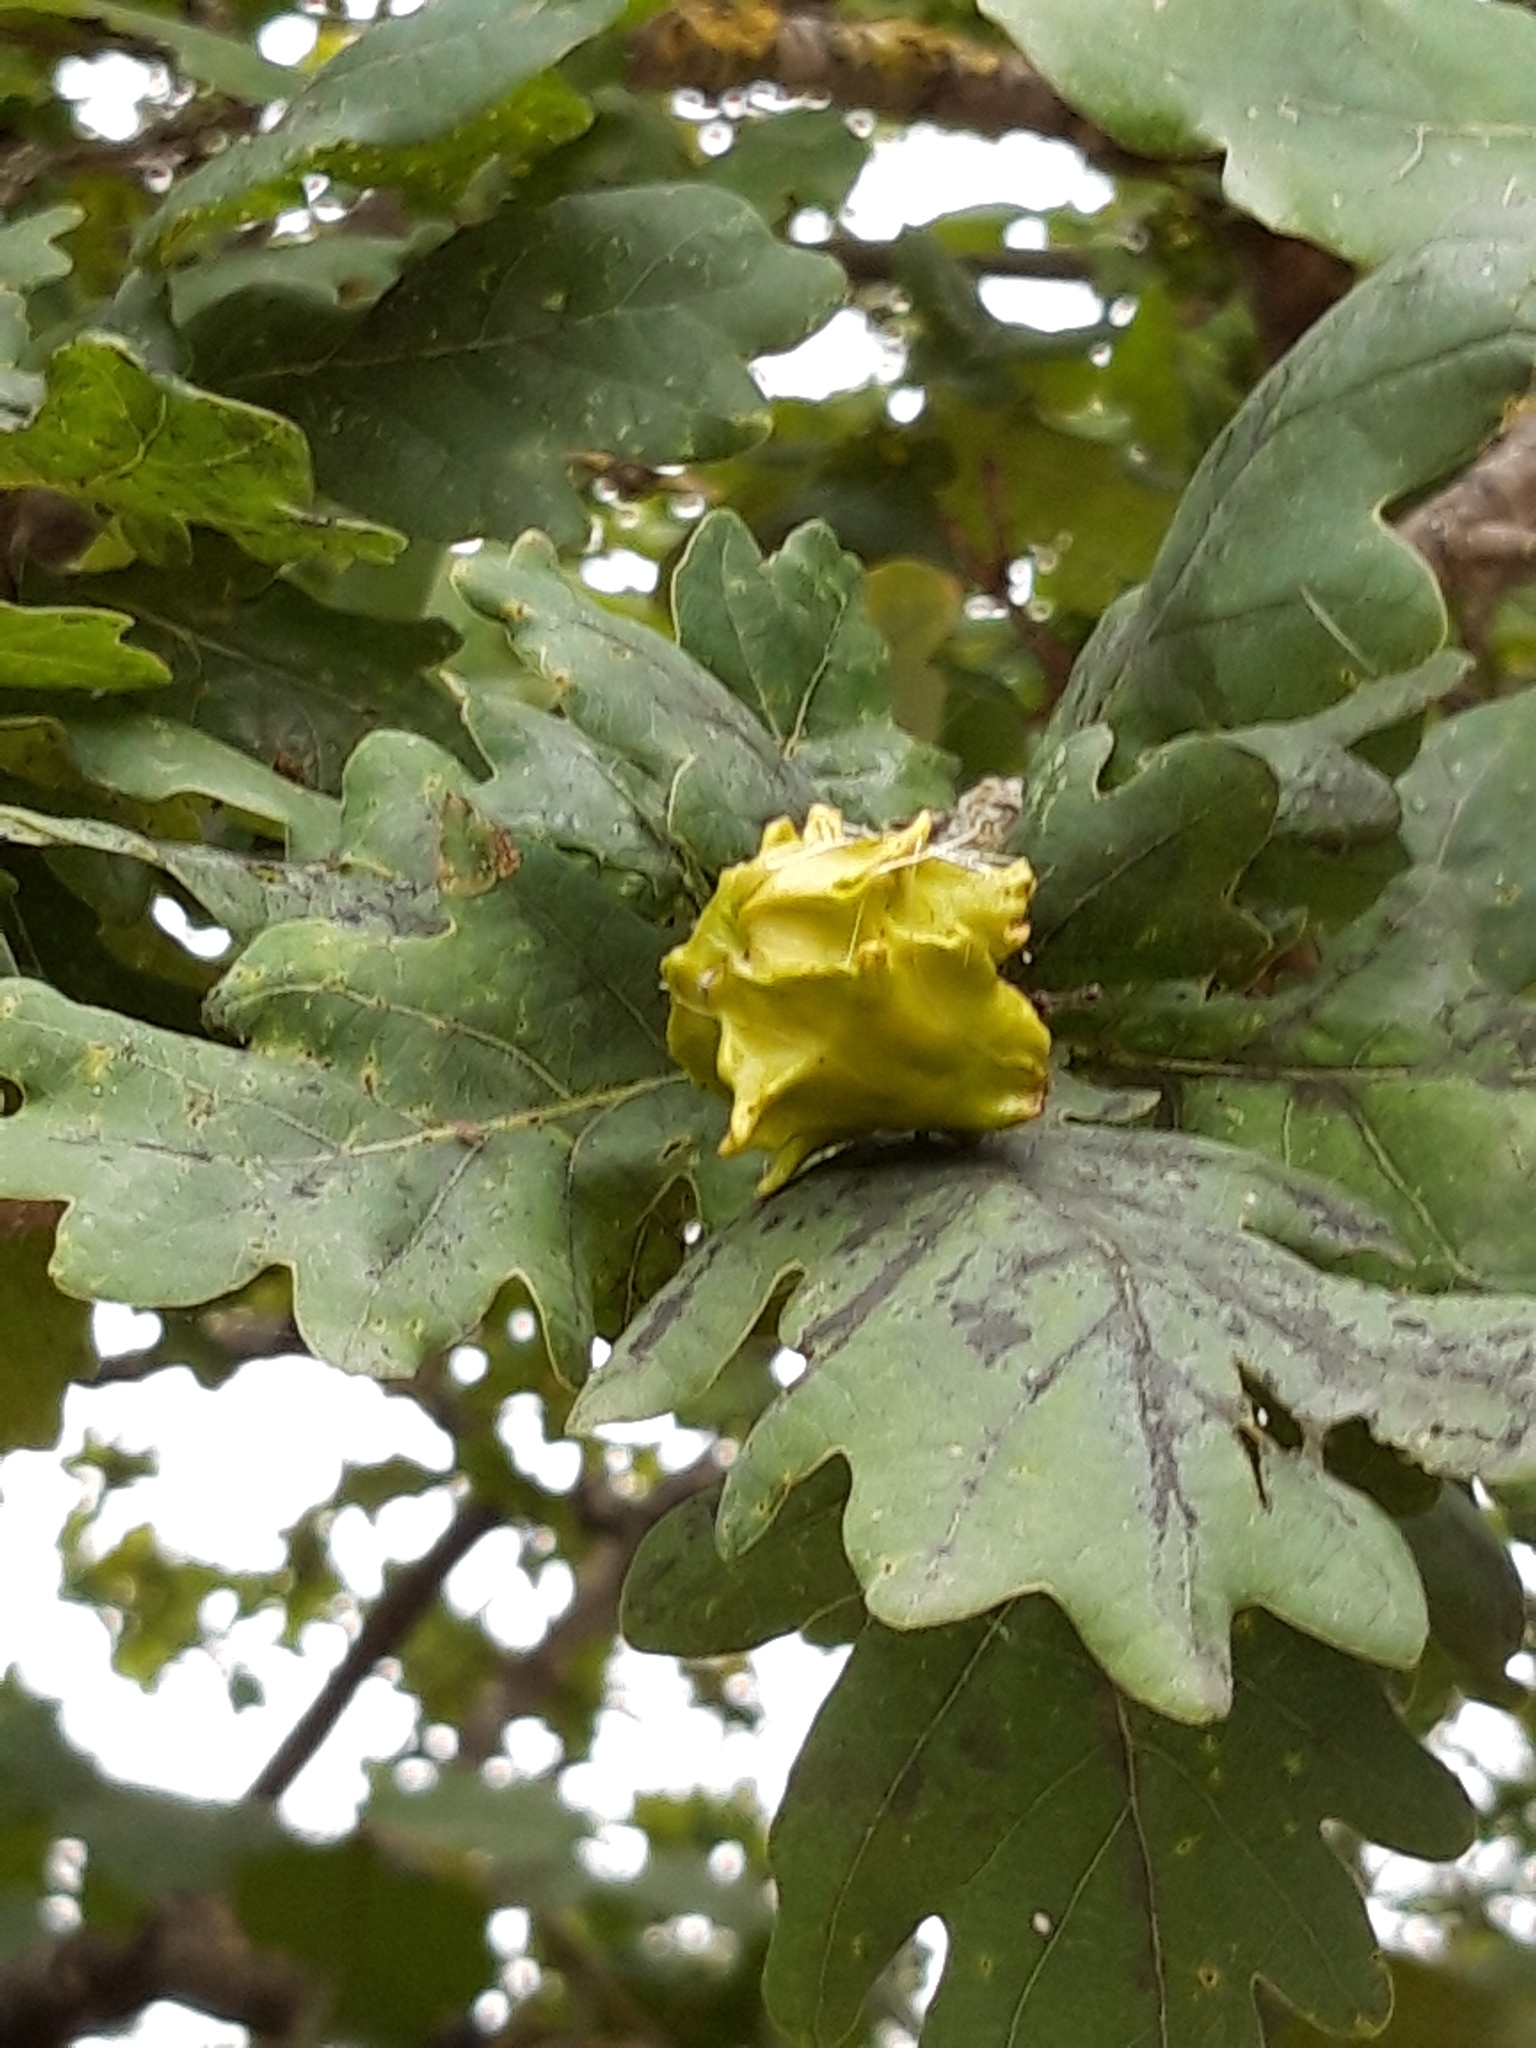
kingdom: Animalia
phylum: Arthropoda
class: Insecta
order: Hymenoptera
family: Cynipidae
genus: Andricus
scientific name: Andricus quercuscalicis
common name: Knopper gall
